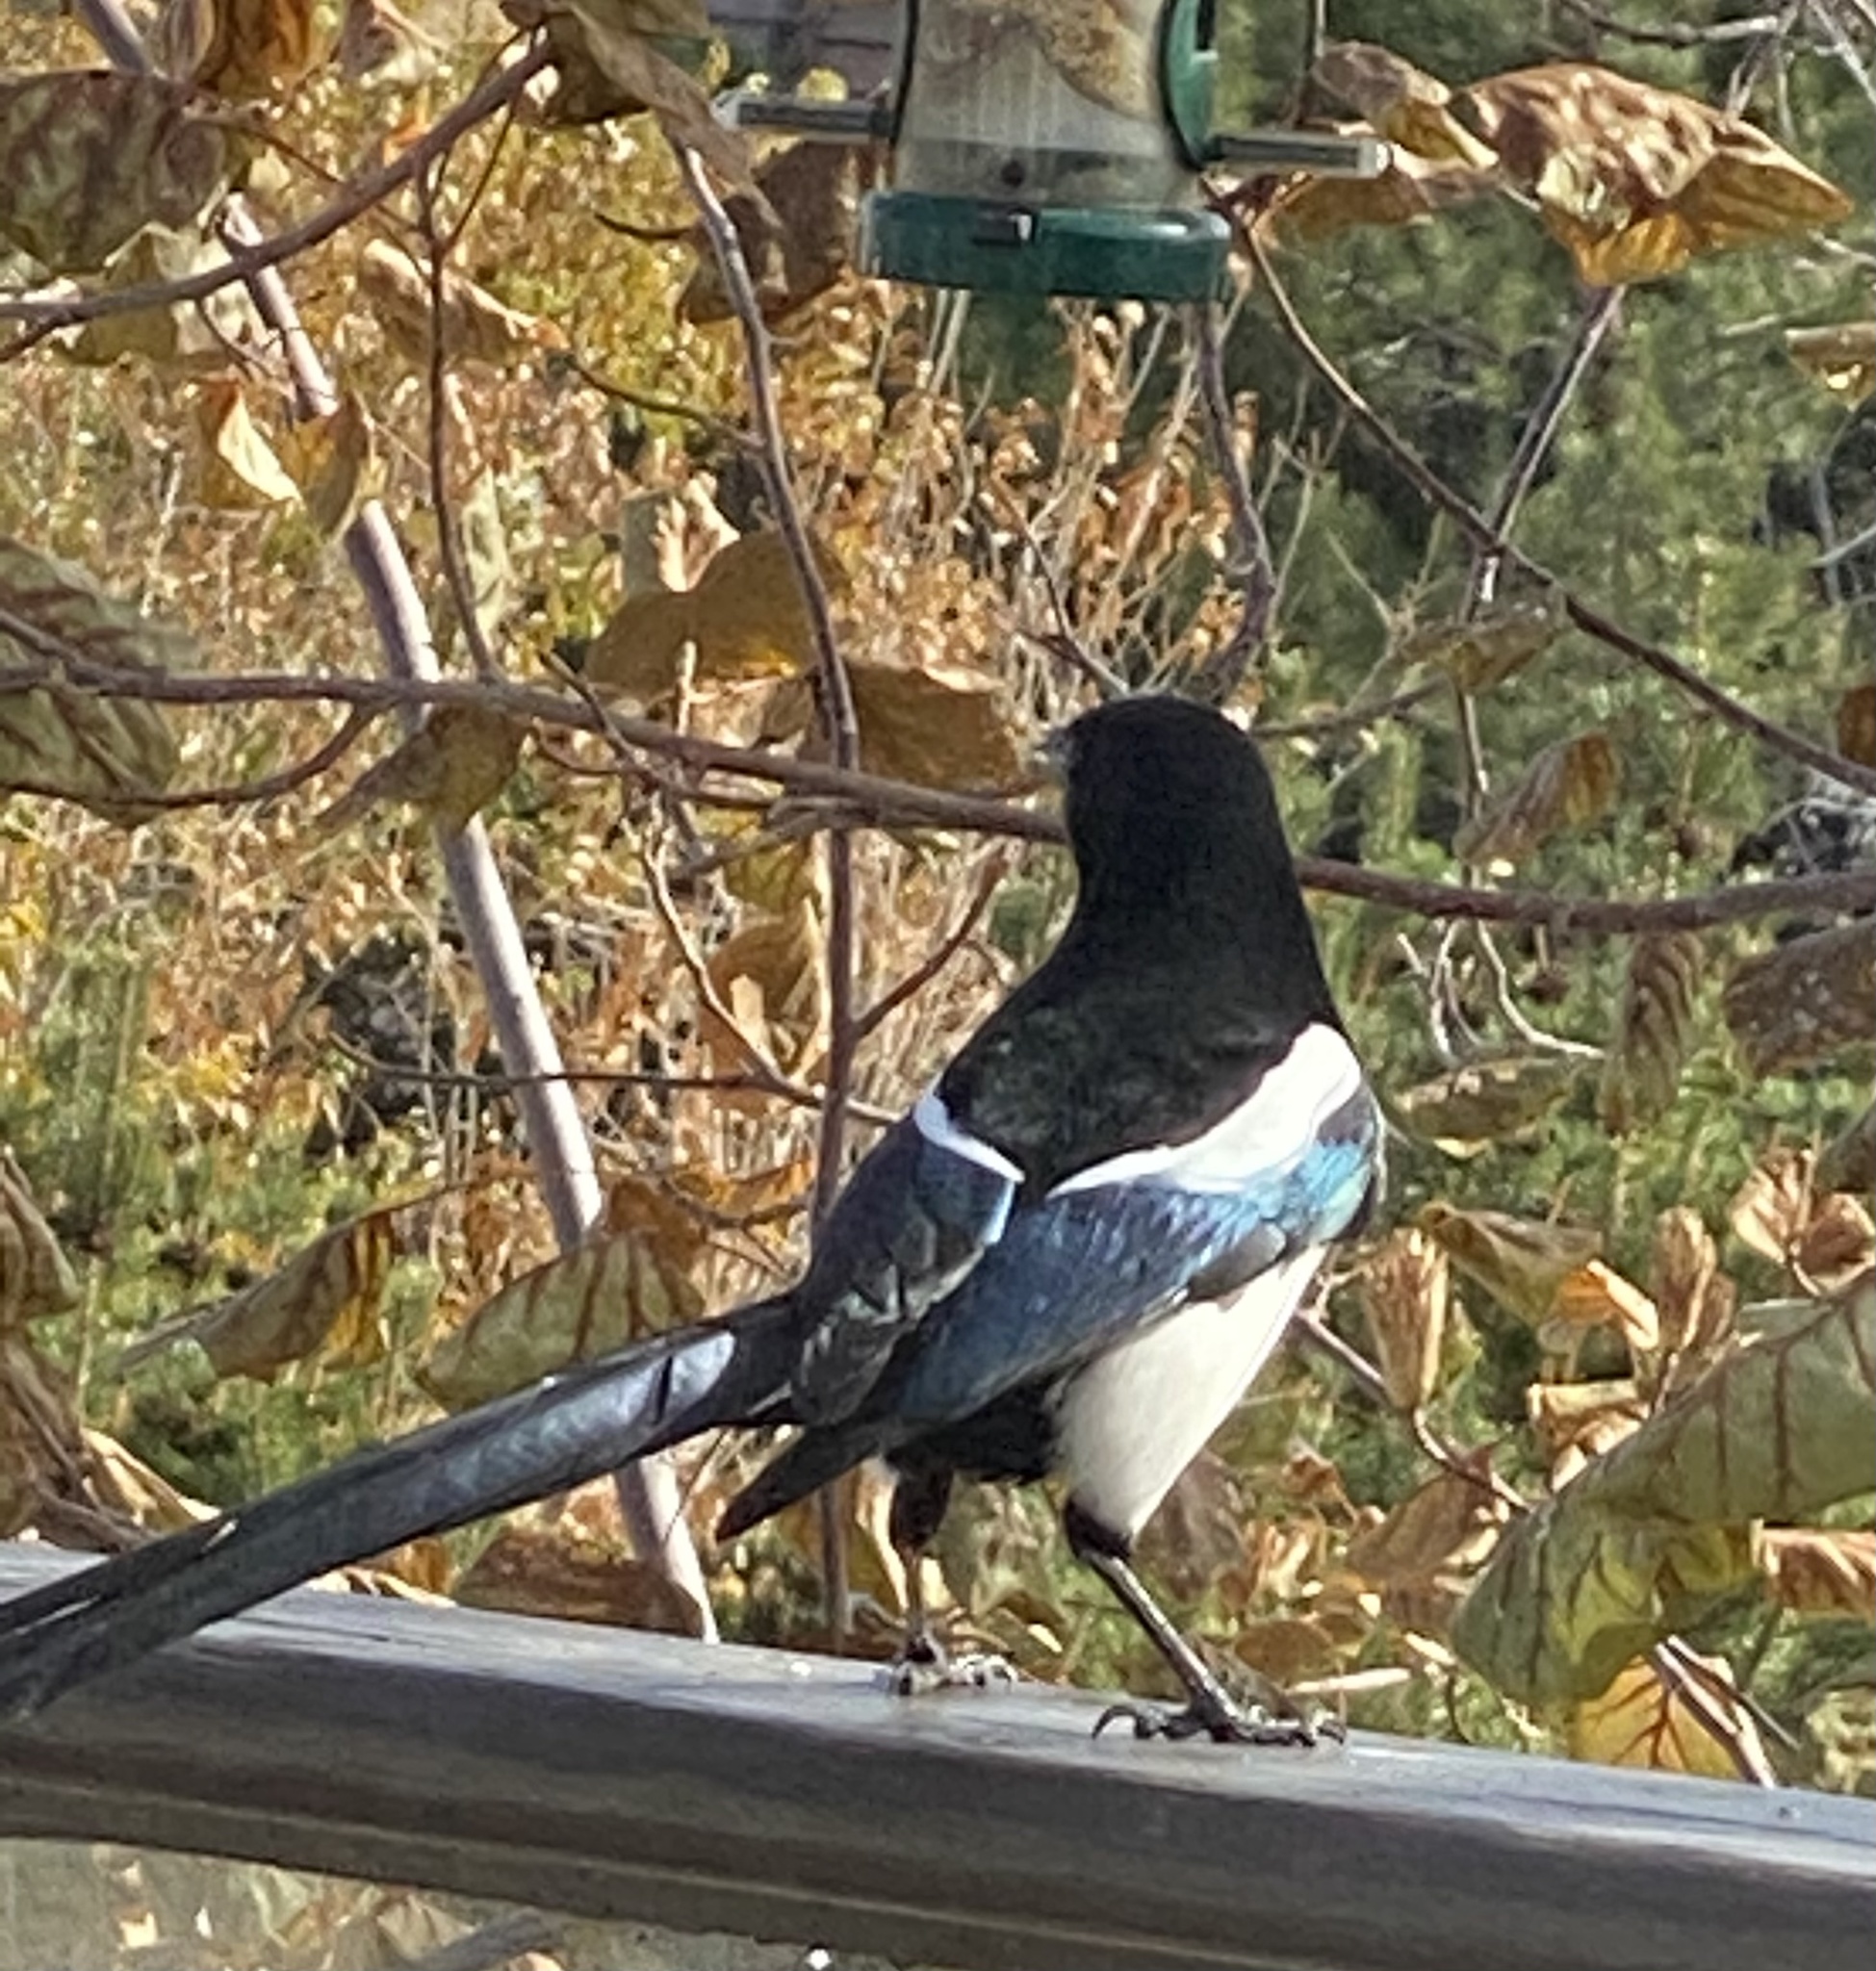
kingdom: Animalia
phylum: Chordata
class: Aves
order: Passeriformes
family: Corvidae
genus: Pica
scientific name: Pica hudsonia
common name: Black-billed magpie
